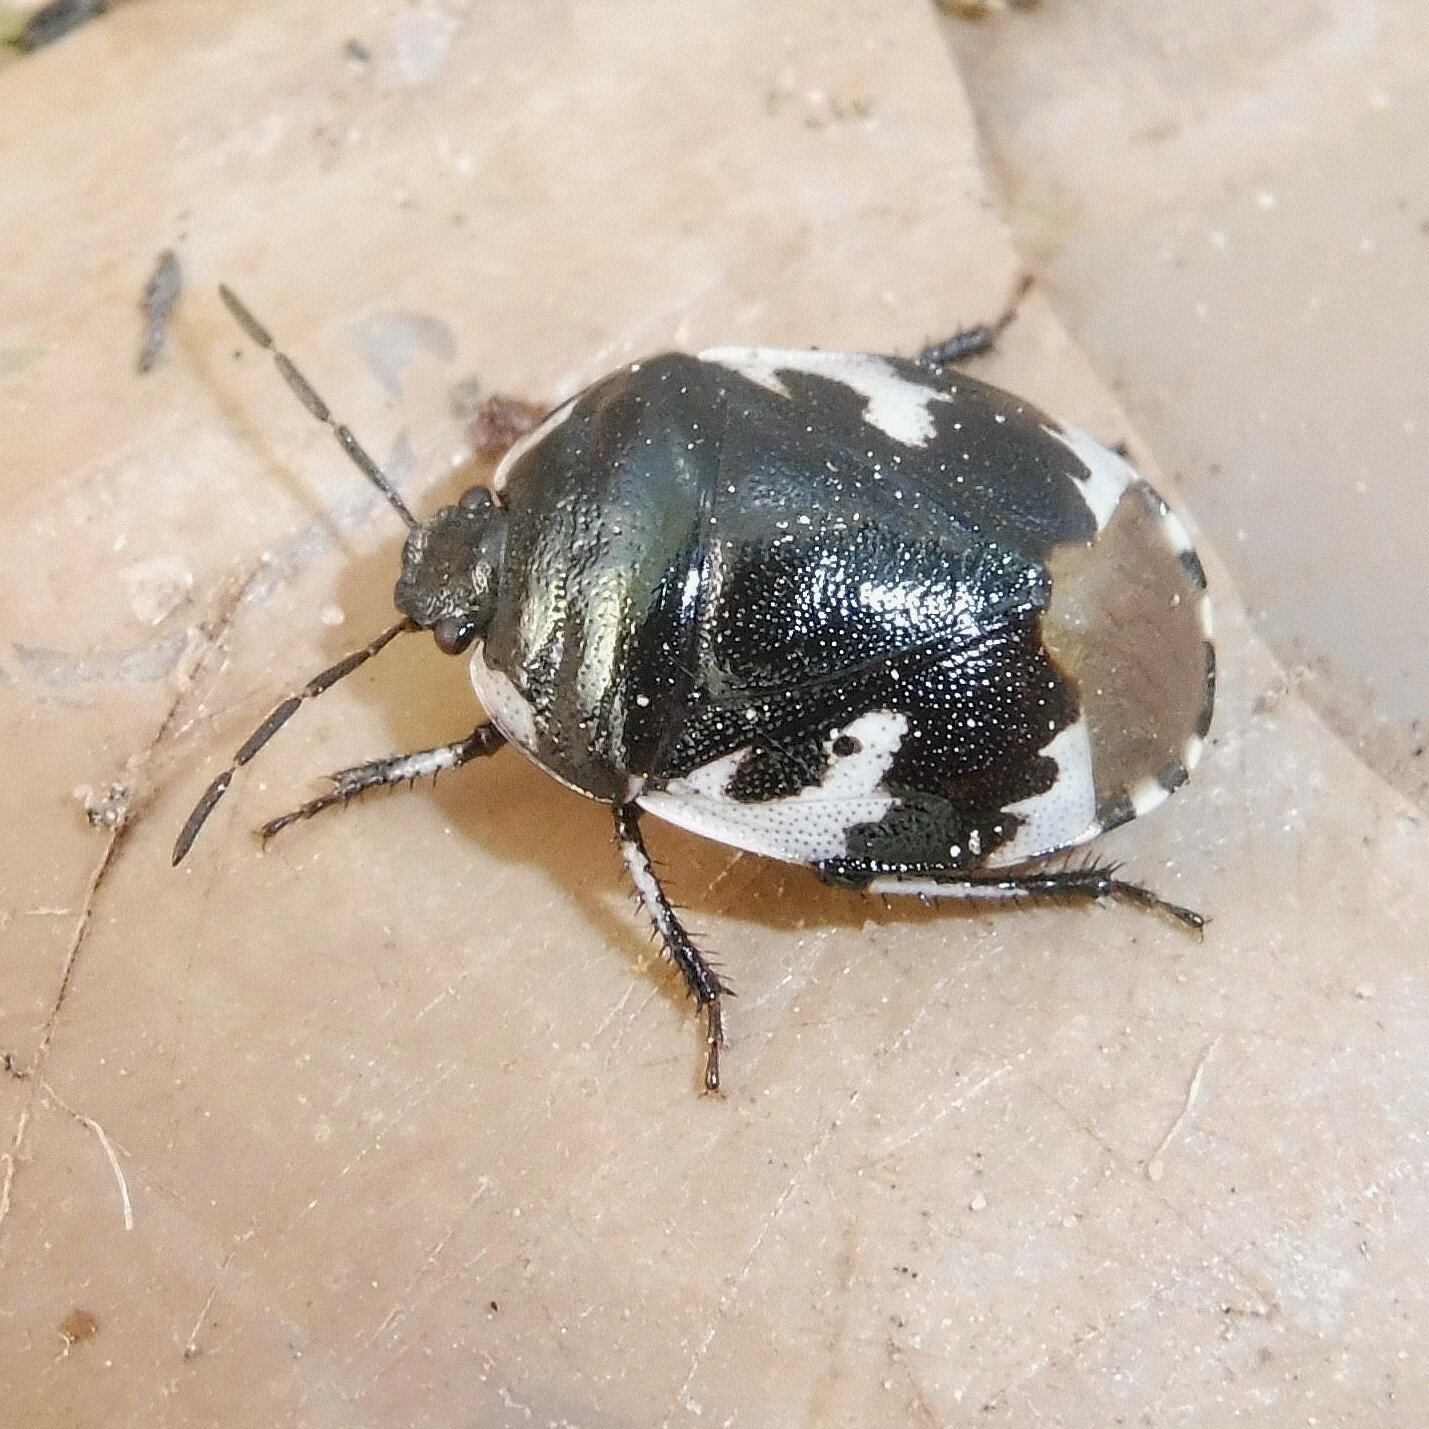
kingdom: Animalia
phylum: Arthropoda
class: Insecta
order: Hemiptera
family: Cydnidae
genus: Tritomegas
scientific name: Tritomegas bicolor
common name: Pied shieldbug
